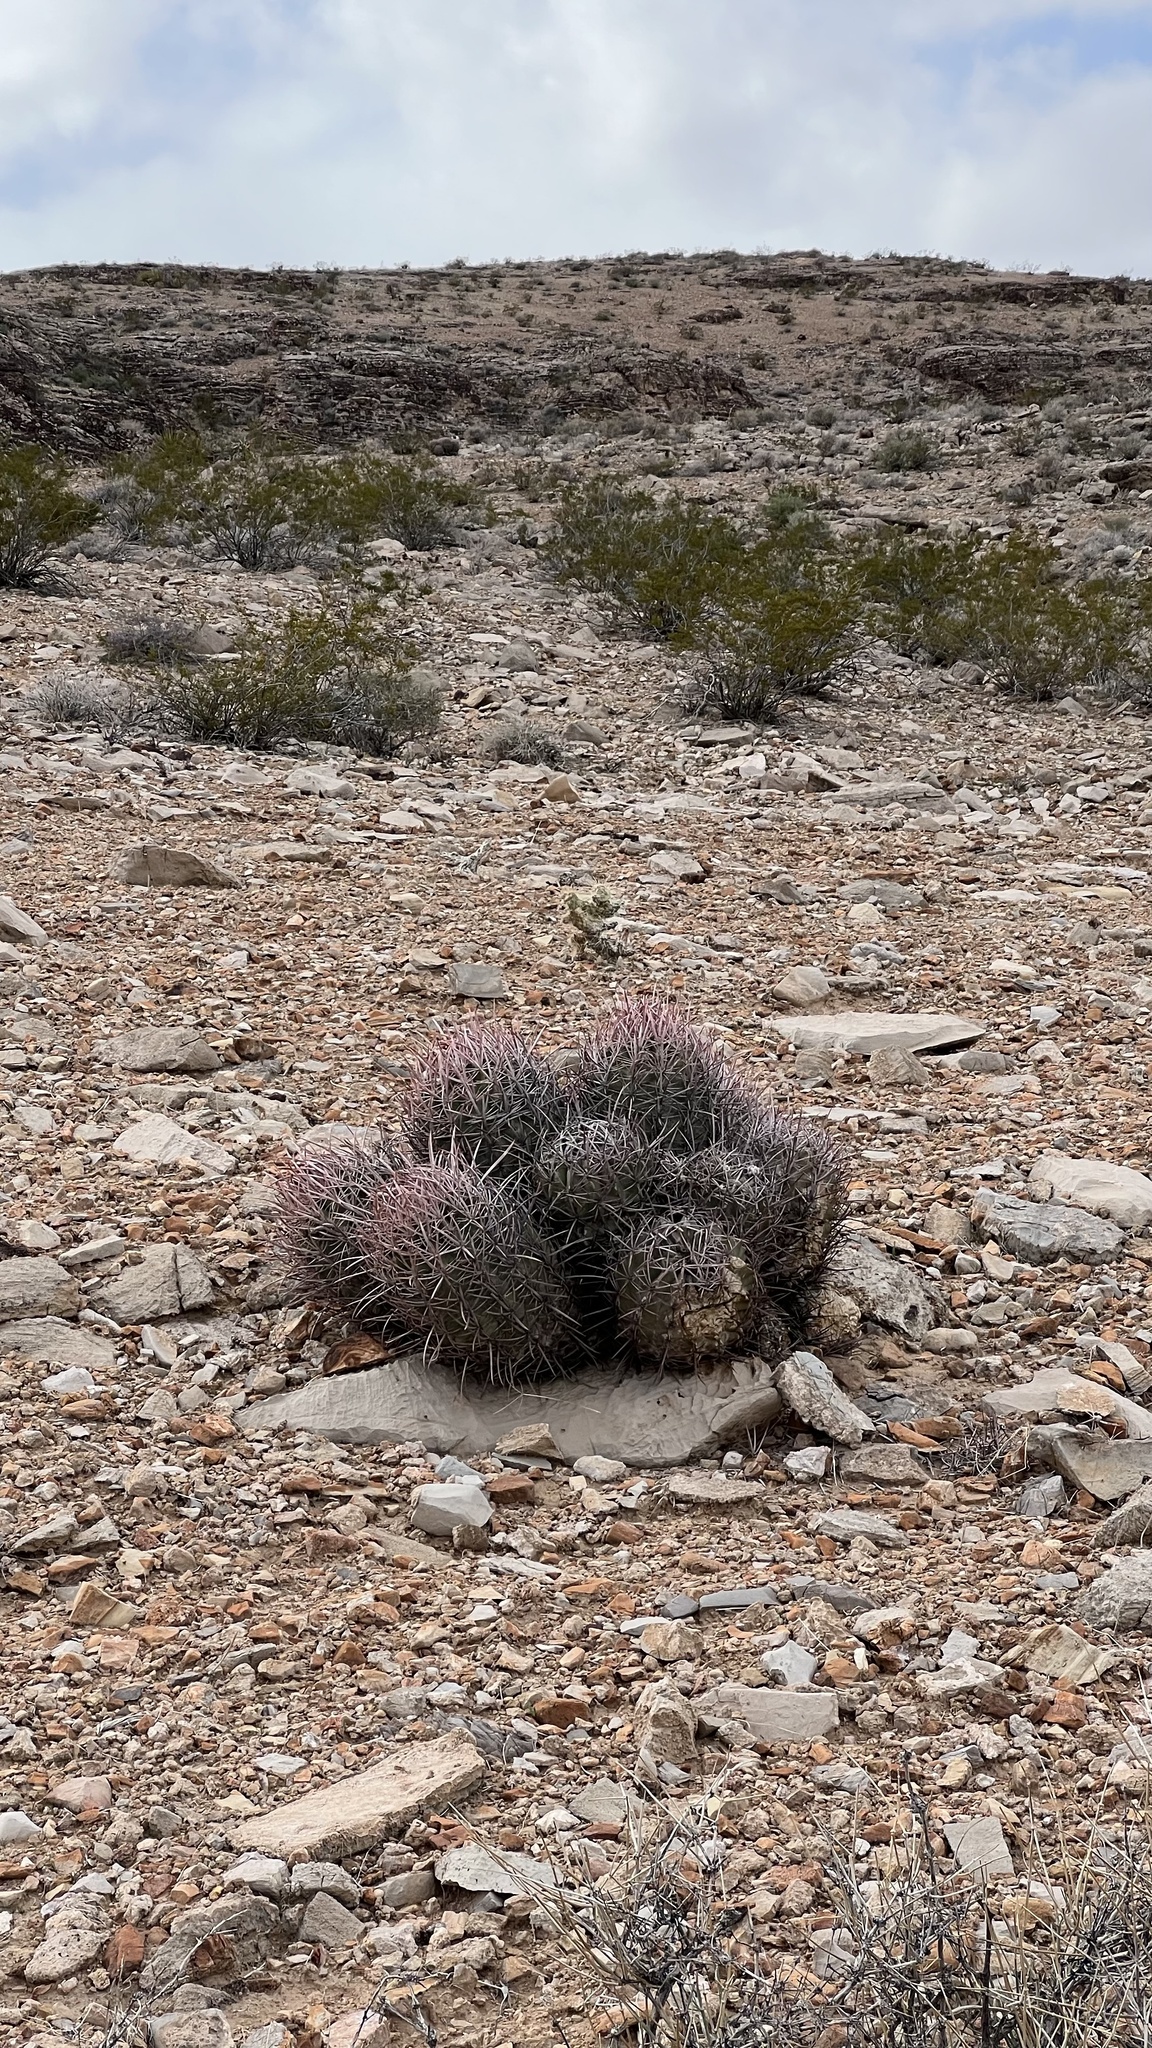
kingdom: Plantae
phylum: Tracheophyta
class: Magnoliopsida
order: Caryophyllales
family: Cactaceae
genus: Echinocactus
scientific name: Echinocactus polycephalus
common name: Cottontop cactus
